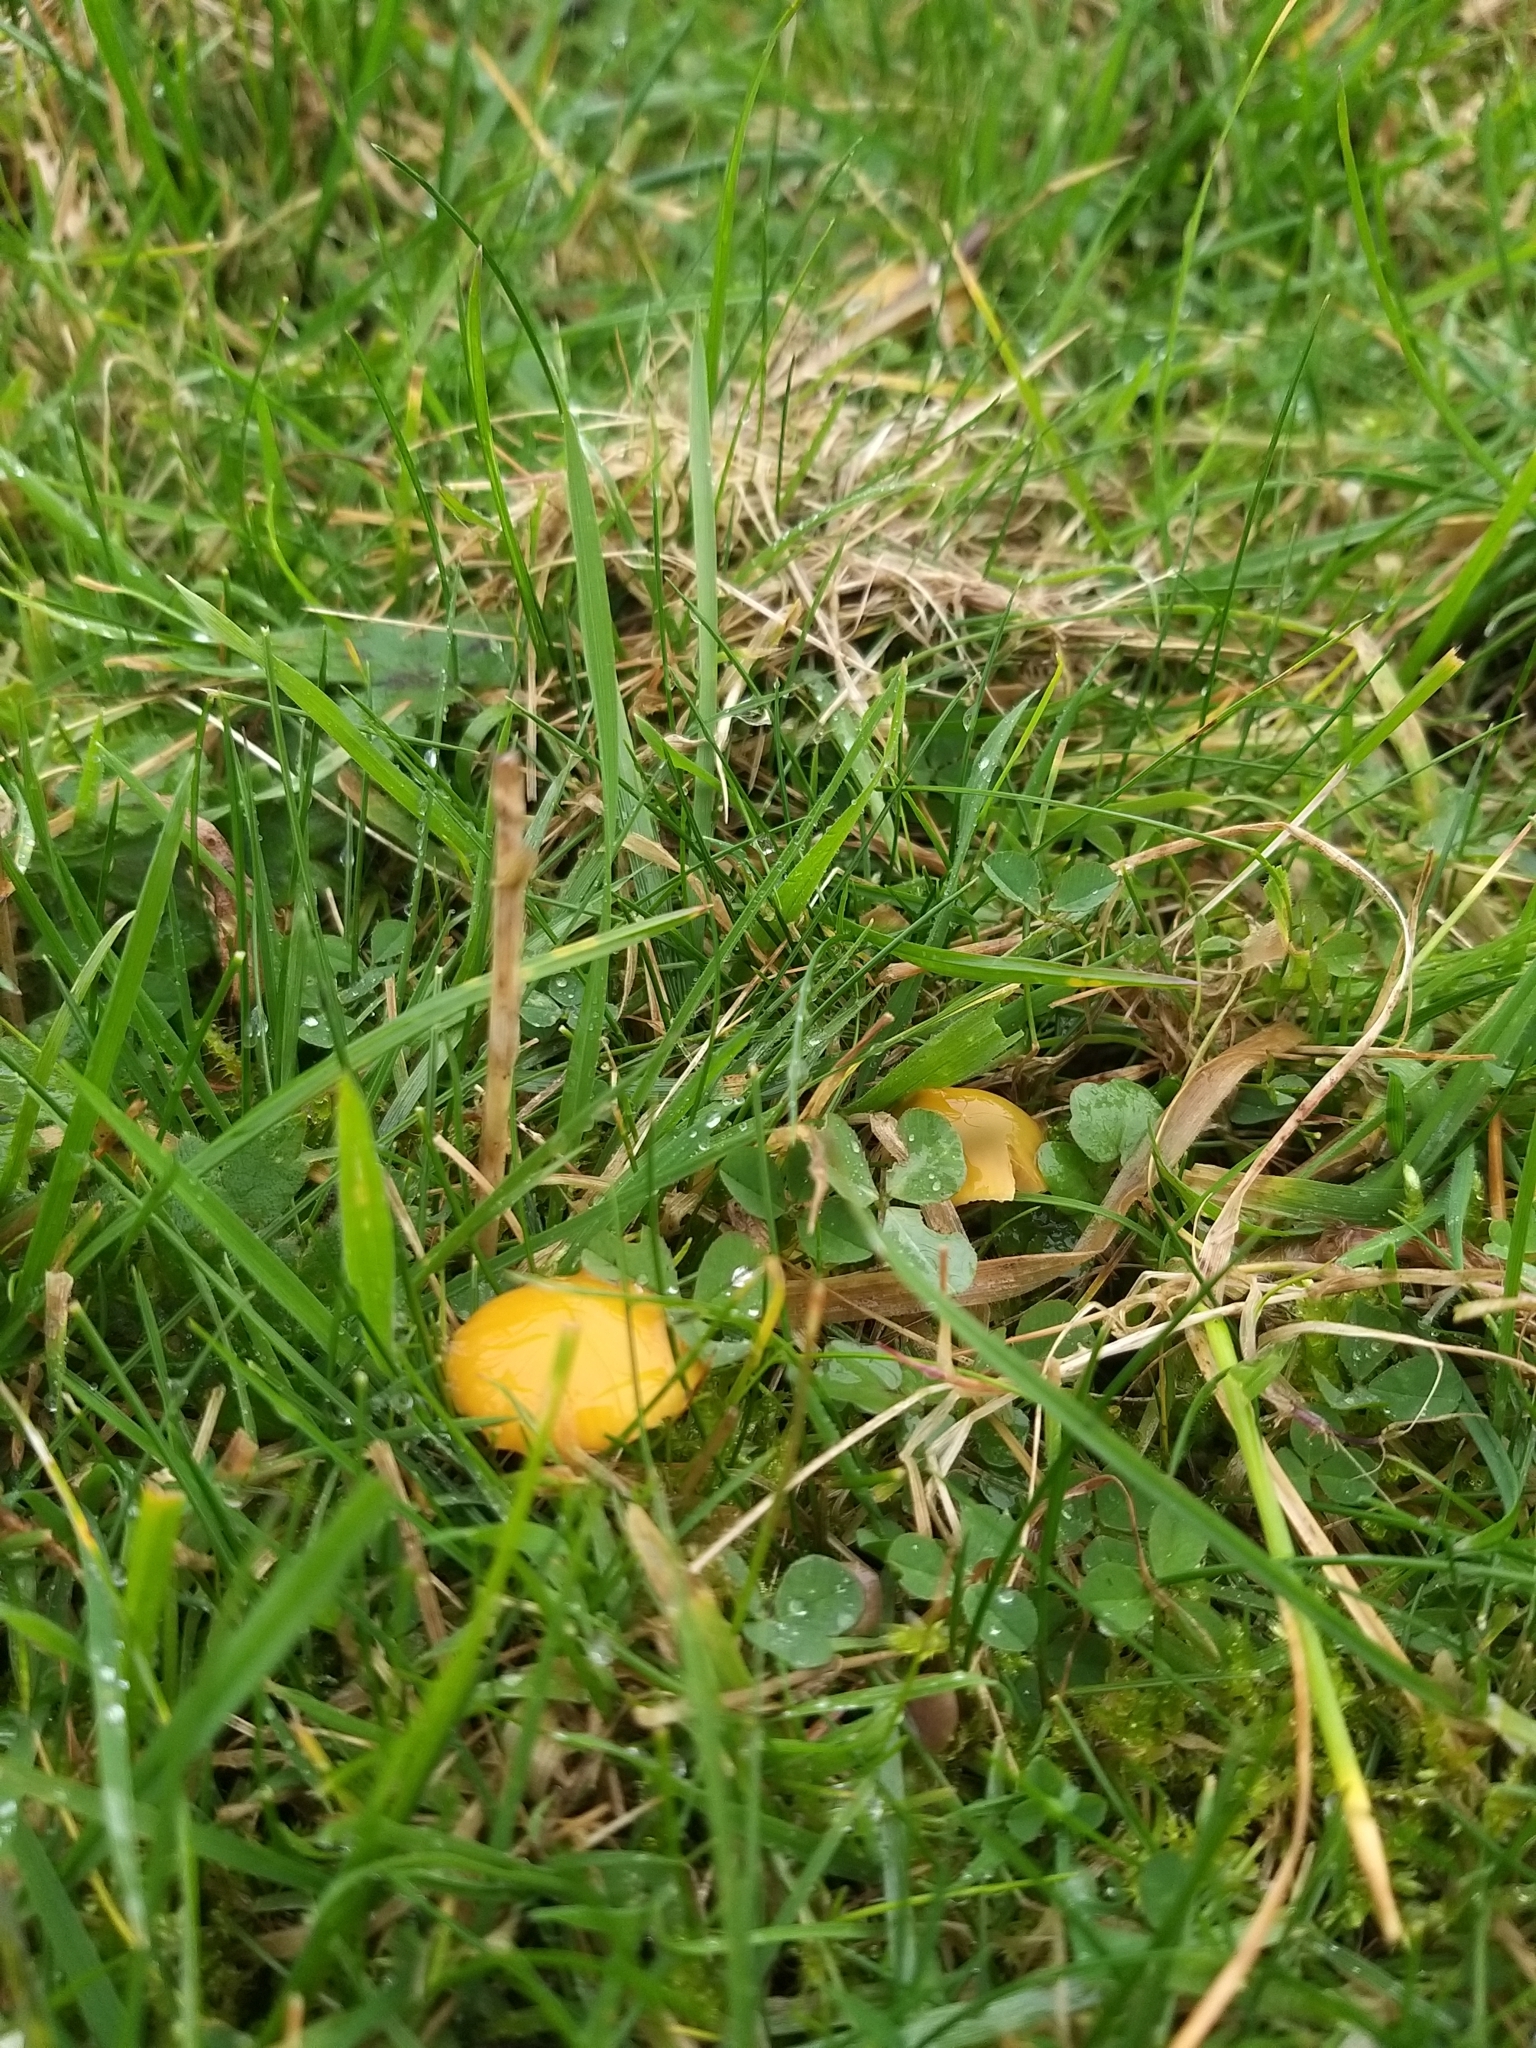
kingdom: Fungi
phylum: Basidiomycota
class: Agaricomycetes
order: Agaricales
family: Hygrophoraceae
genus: Gliophorus
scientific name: Gliophorus psittacinus
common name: Parrot wax-cap
